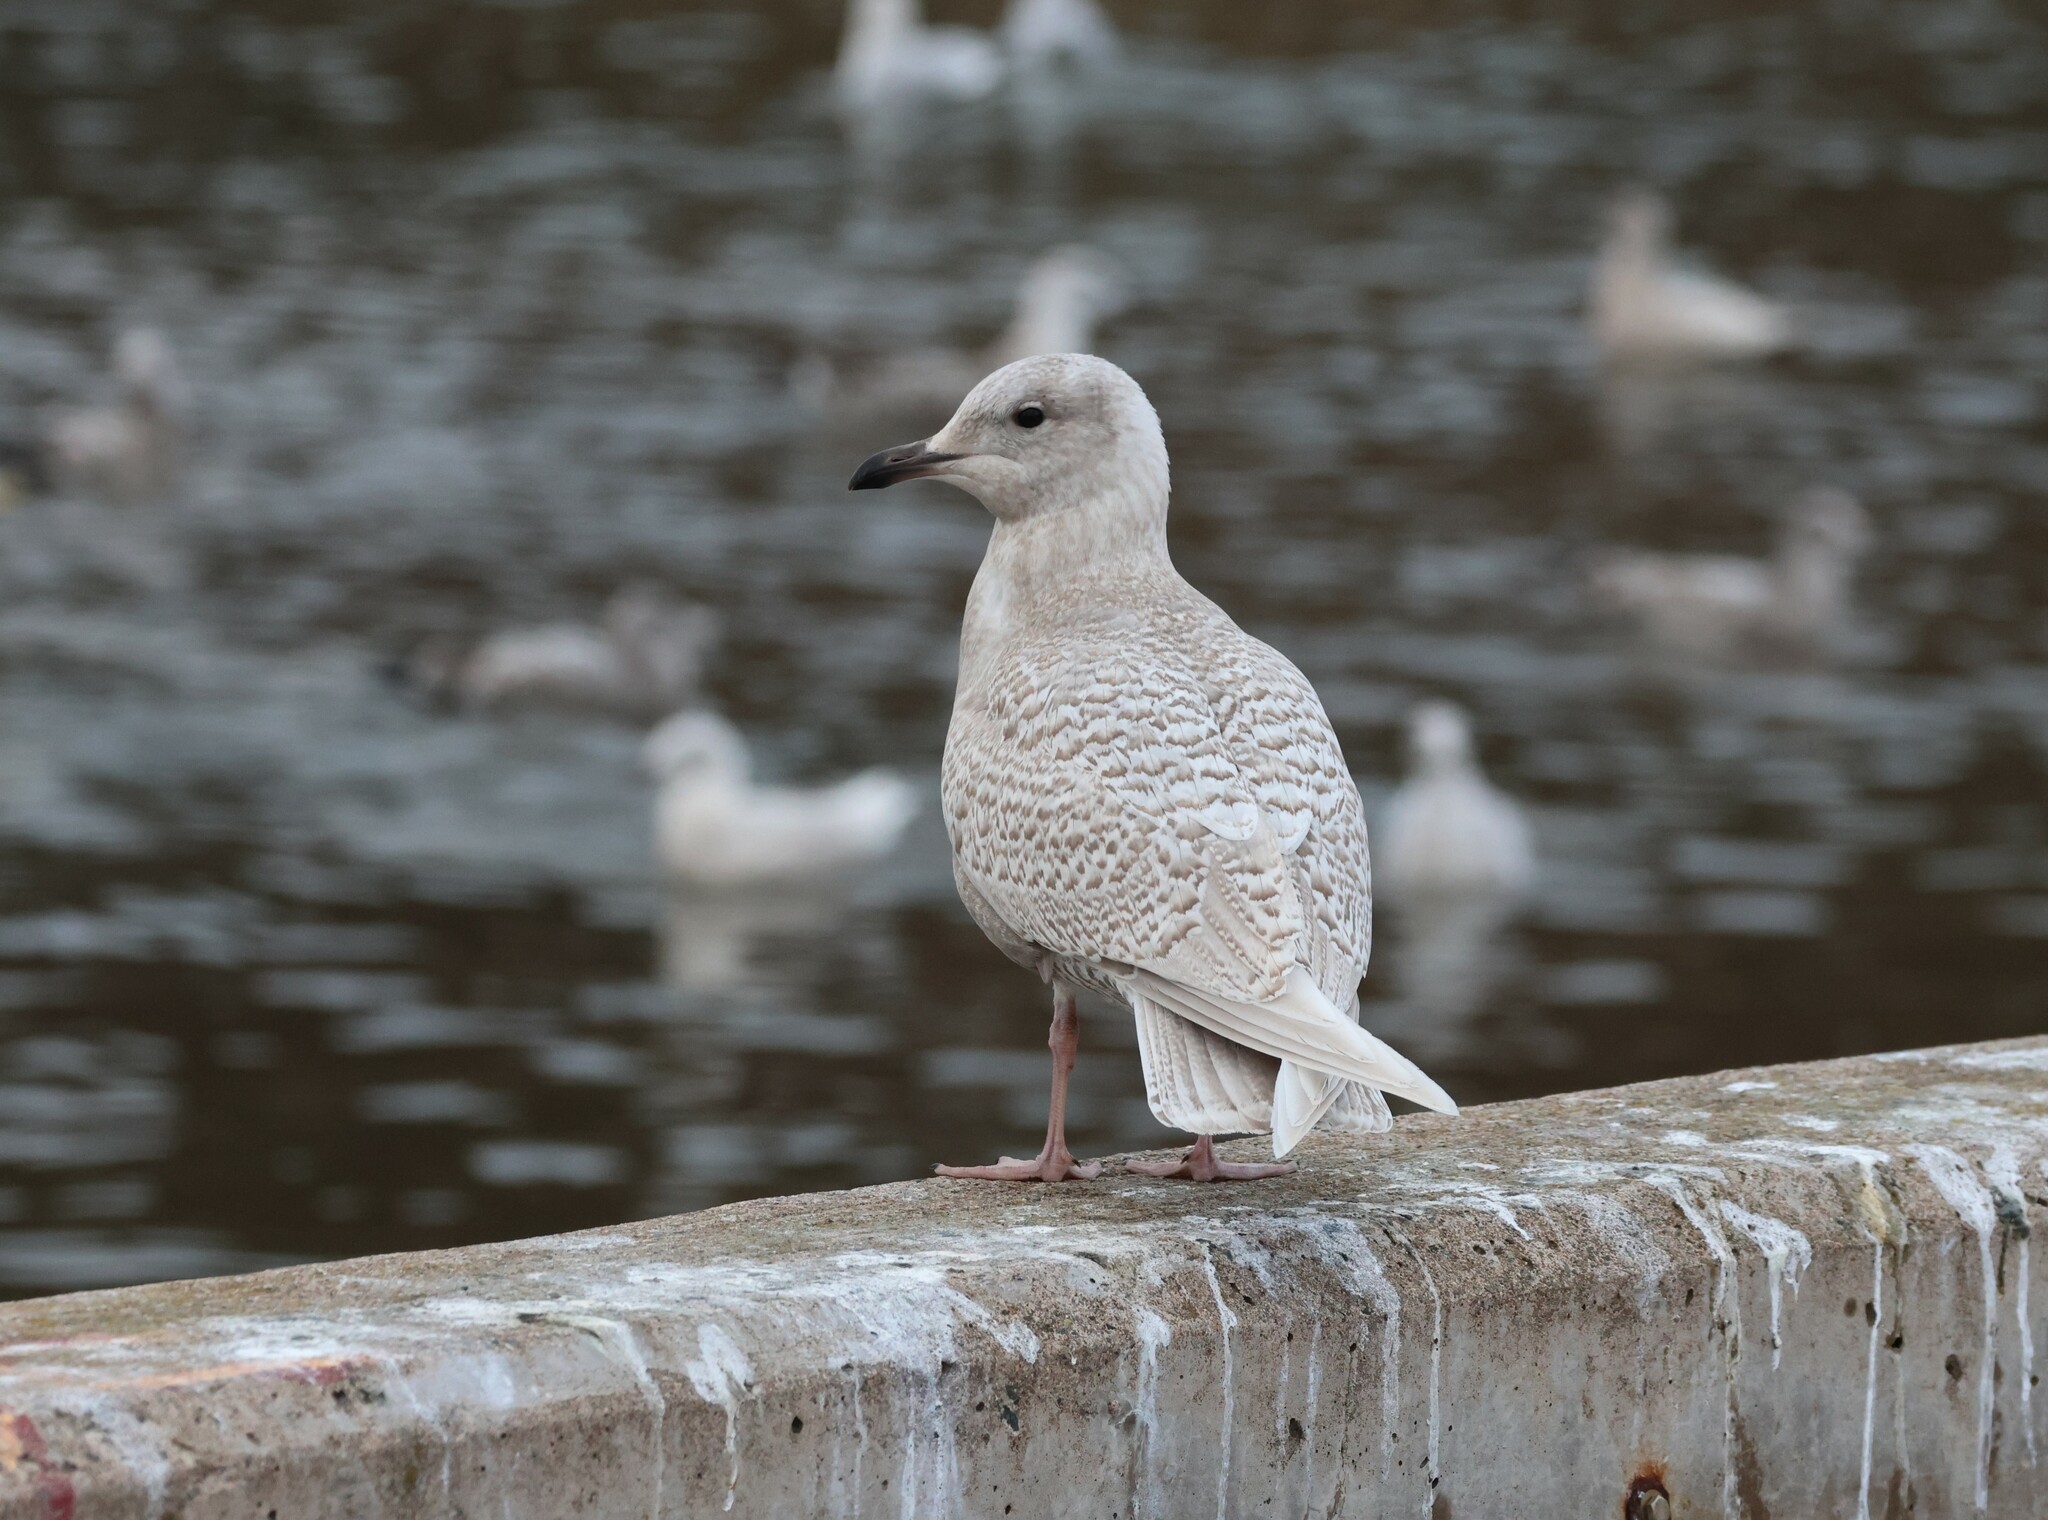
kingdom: Animalia
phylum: Chordata
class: Aves
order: Charadriiformes
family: Laridae
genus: Larus
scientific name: Larus glaucoides
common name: Iceland gull
